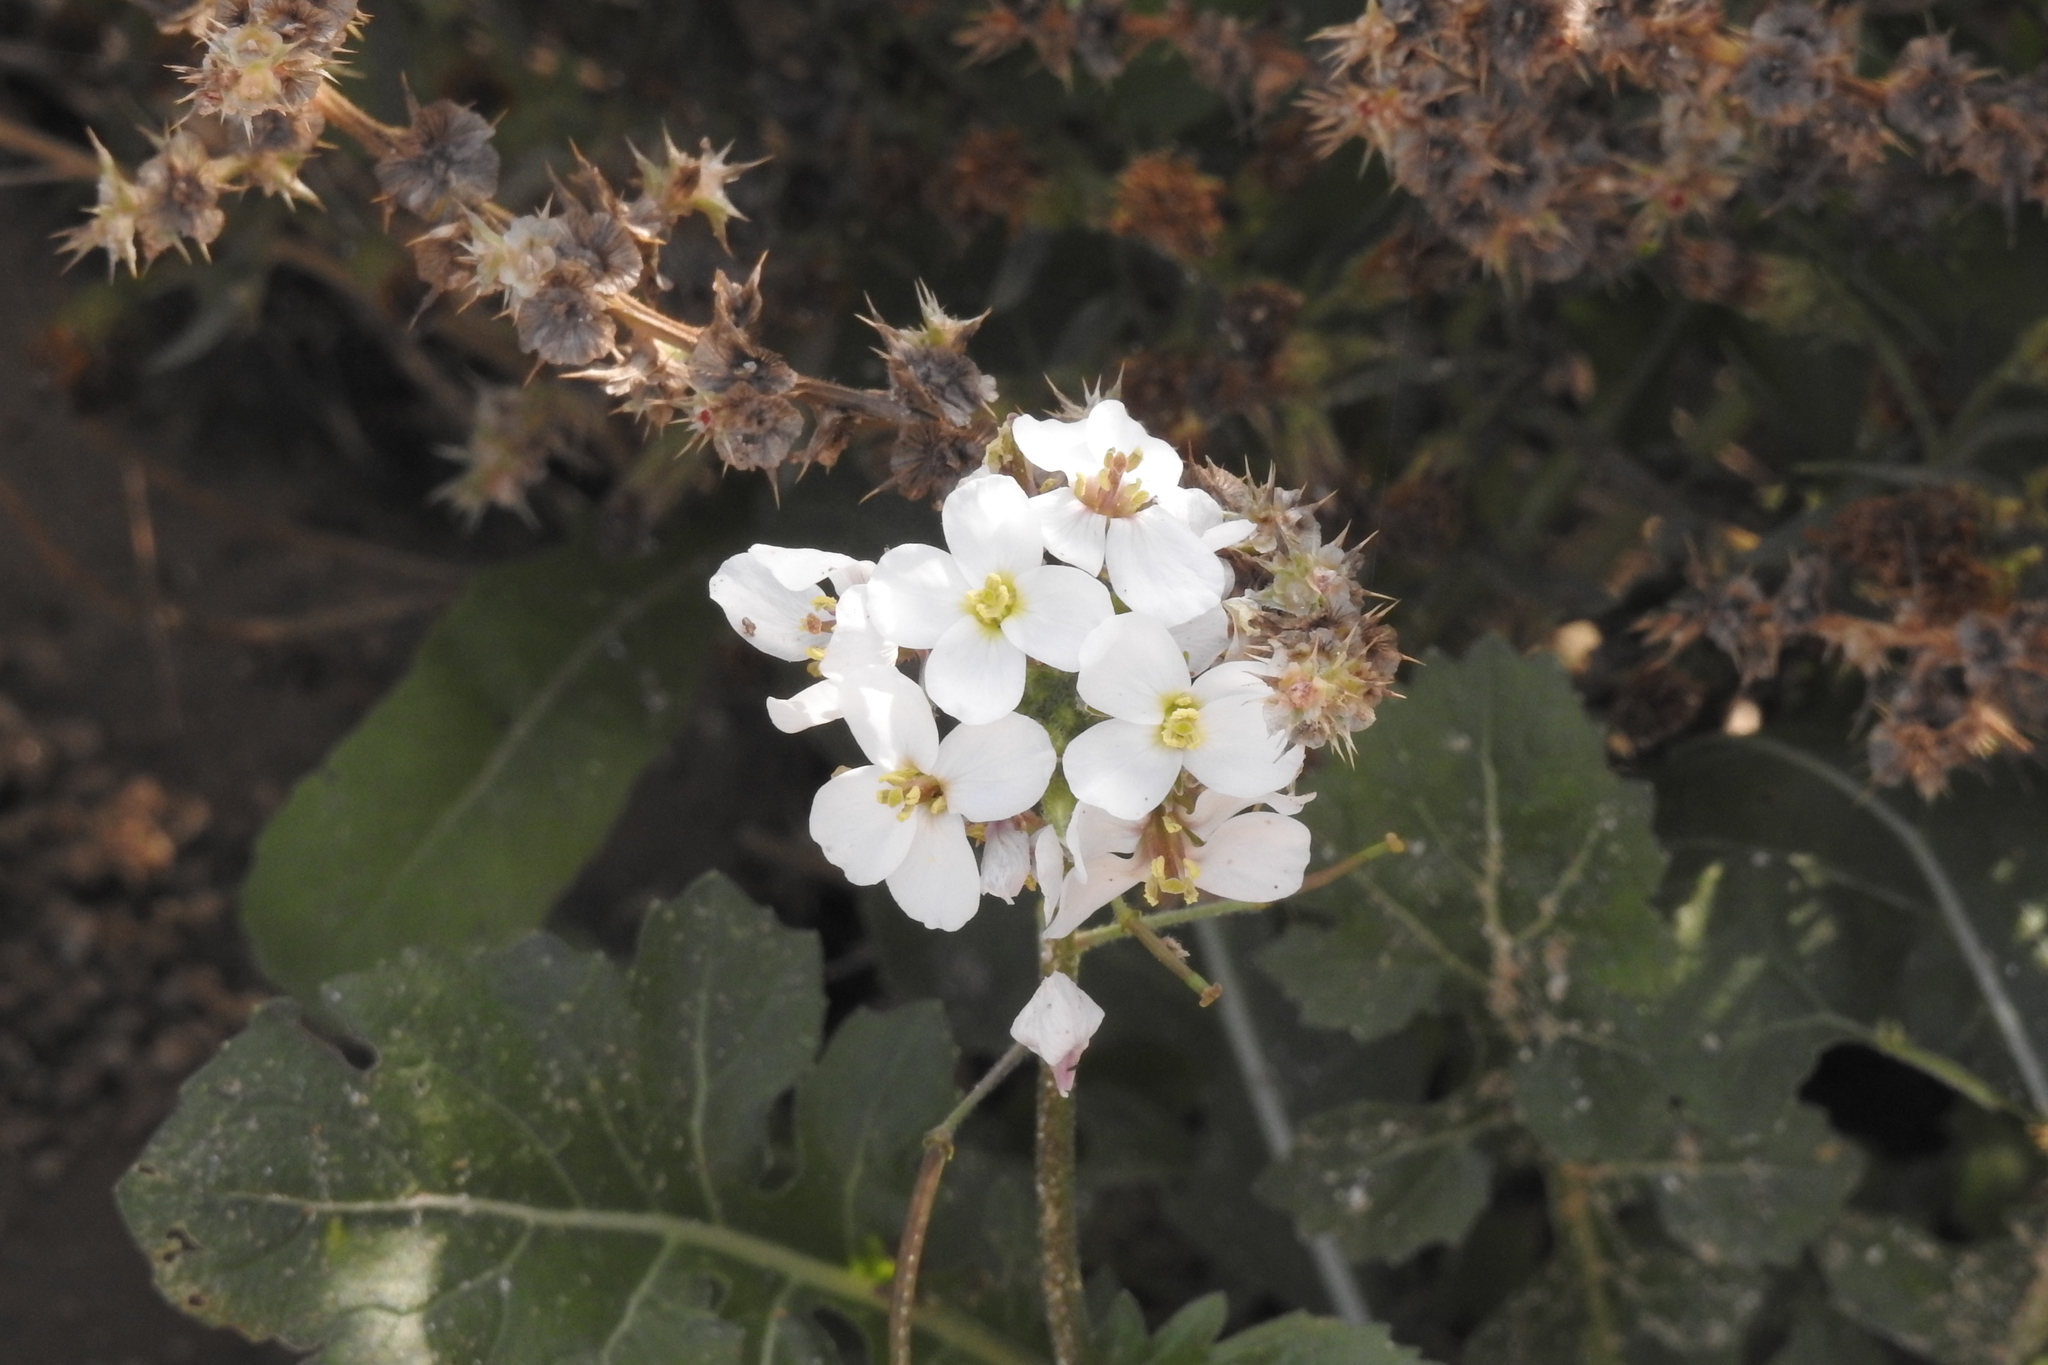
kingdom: Plantae
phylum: Tracheophyta
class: Magnoliopsida
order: Brassicales
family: Brassicaceae
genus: Diplotaxis
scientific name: Diplotaxis erucoides
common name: White rocket
